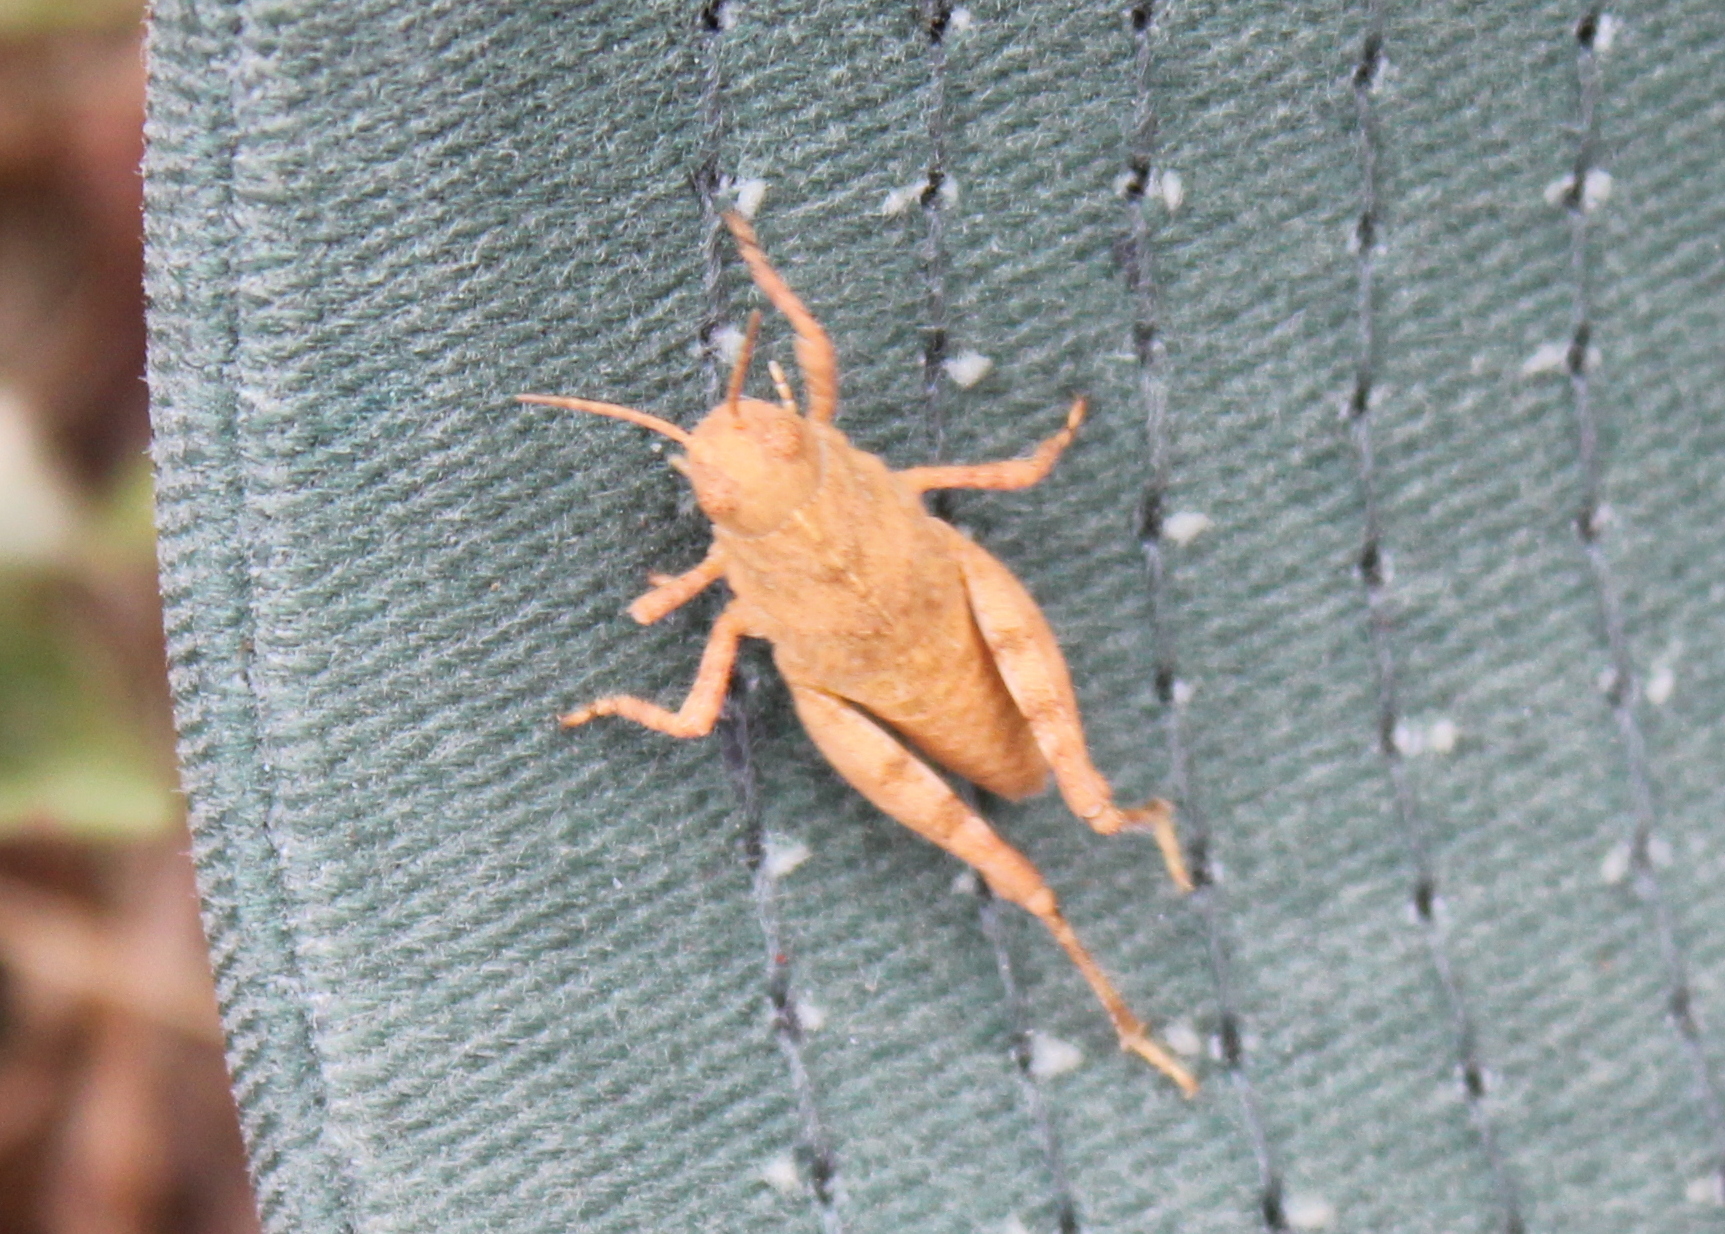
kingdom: Animalia
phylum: Arthropoda
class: Insecta
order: Orthoptera
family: Acrididae
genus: Dissosteira
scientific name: Dissosteira carolina
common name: Carolina grasshopper
